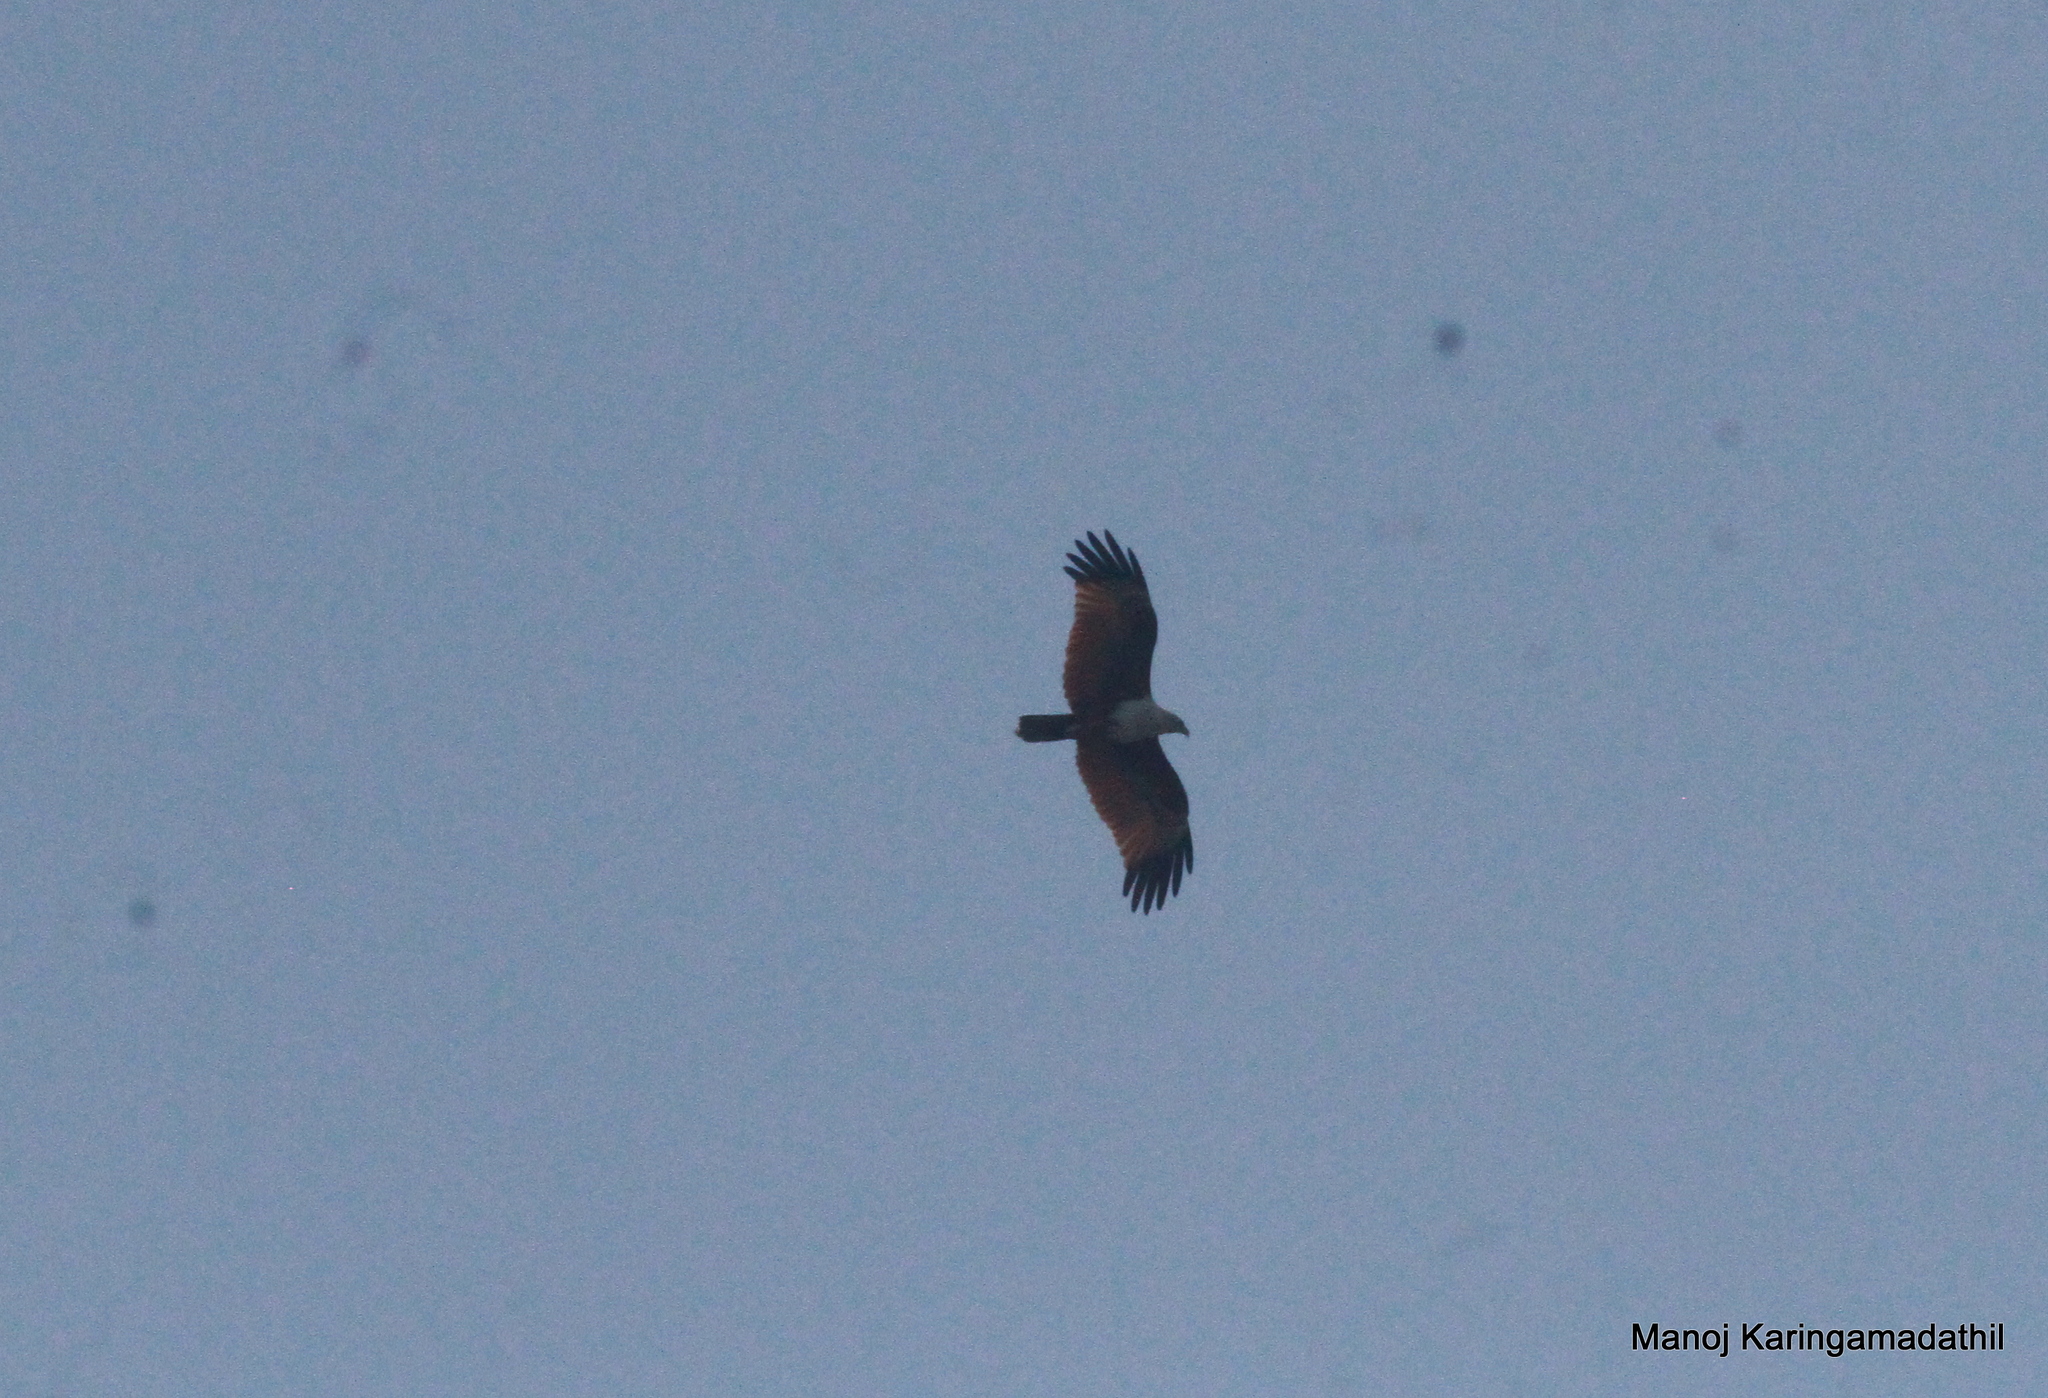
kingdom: Animalia
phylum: Chordata
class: Aves
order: Accipitriformes
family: Accipitridae
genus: Haliastur
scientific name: Haliastur indus
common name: Brahminy kite
